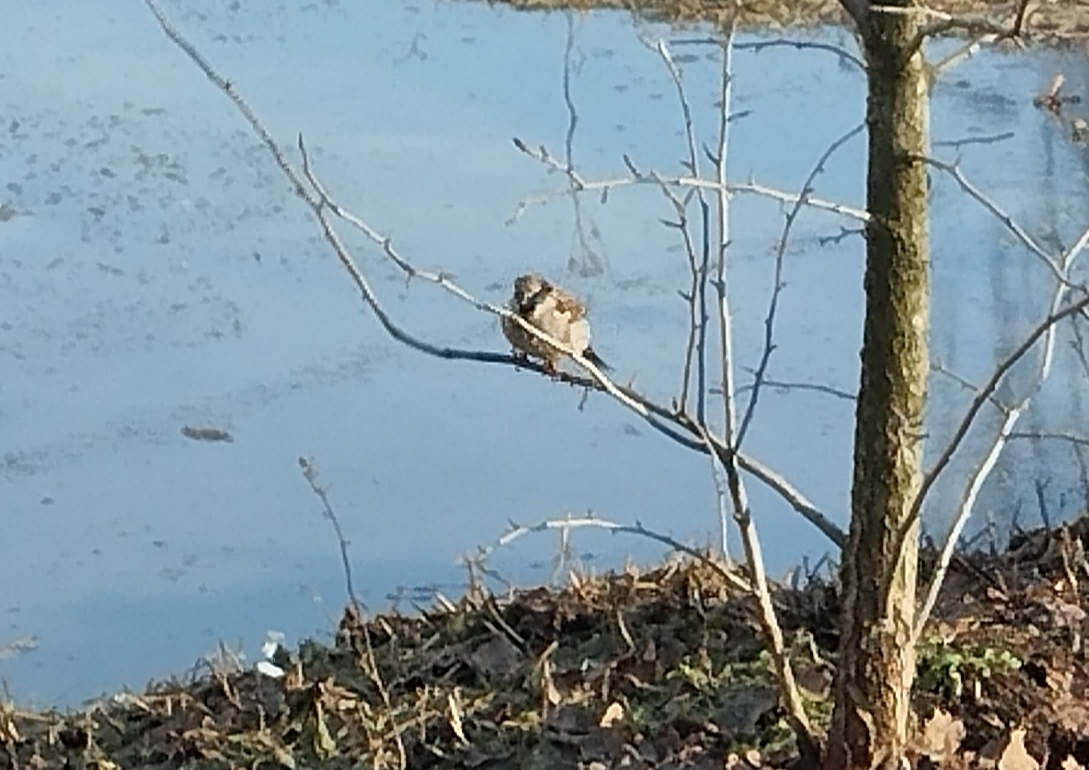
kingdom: Animalia
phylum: Chordata
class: Aves
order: Passeriformes
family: Passeridae
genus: Passer
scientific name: Passer domesticus
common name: House sparrow
